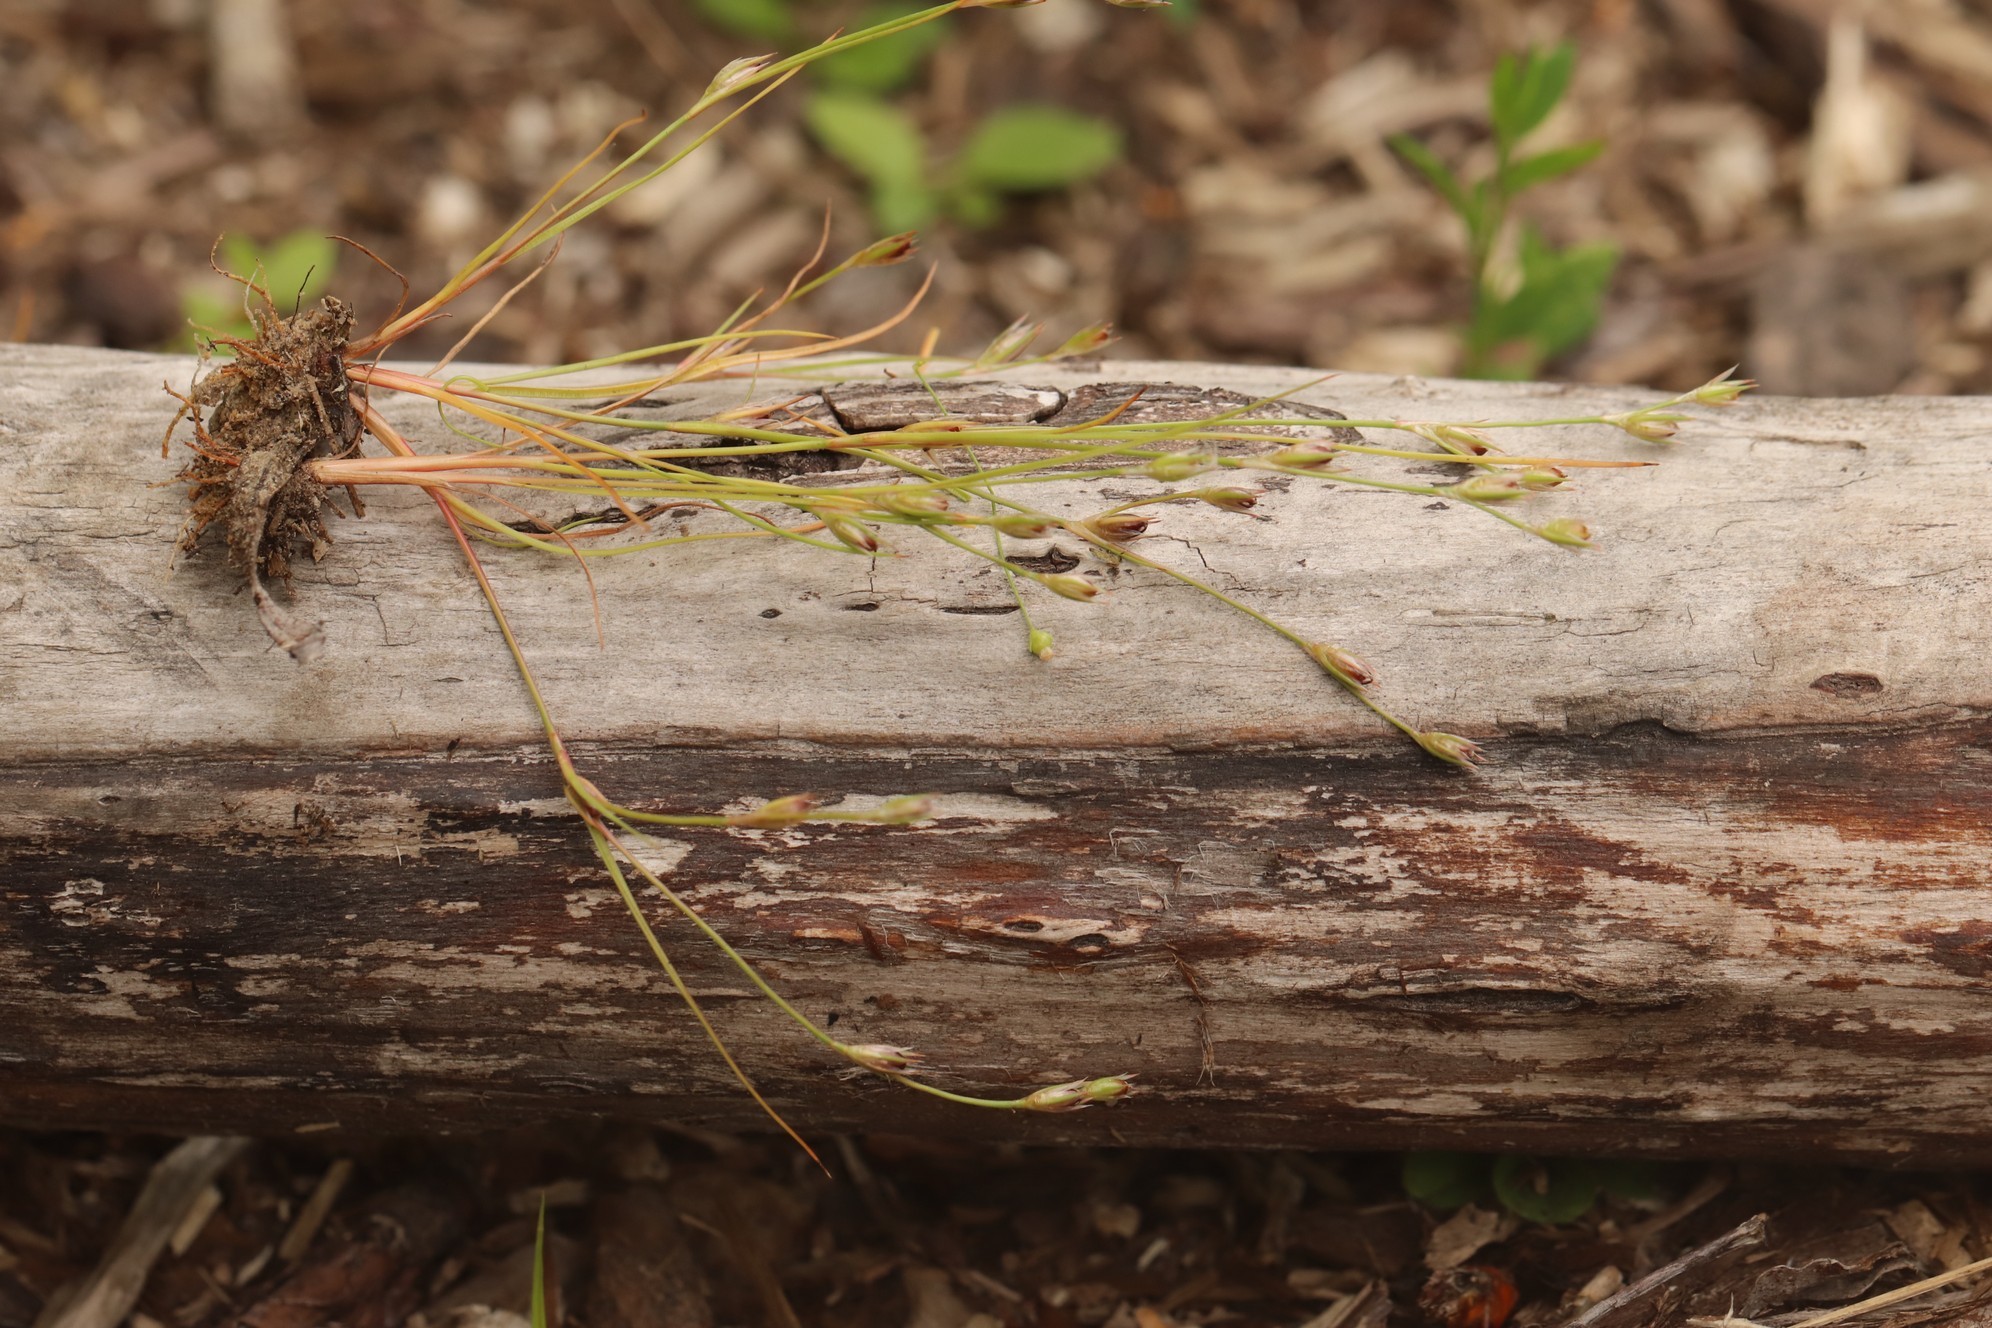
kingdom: Plantae
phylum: Tracheophyta
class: Liliopsida
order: Poales
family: Juncaceae
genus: Juncus
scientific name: Juncus bufonius
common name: Toad rush
